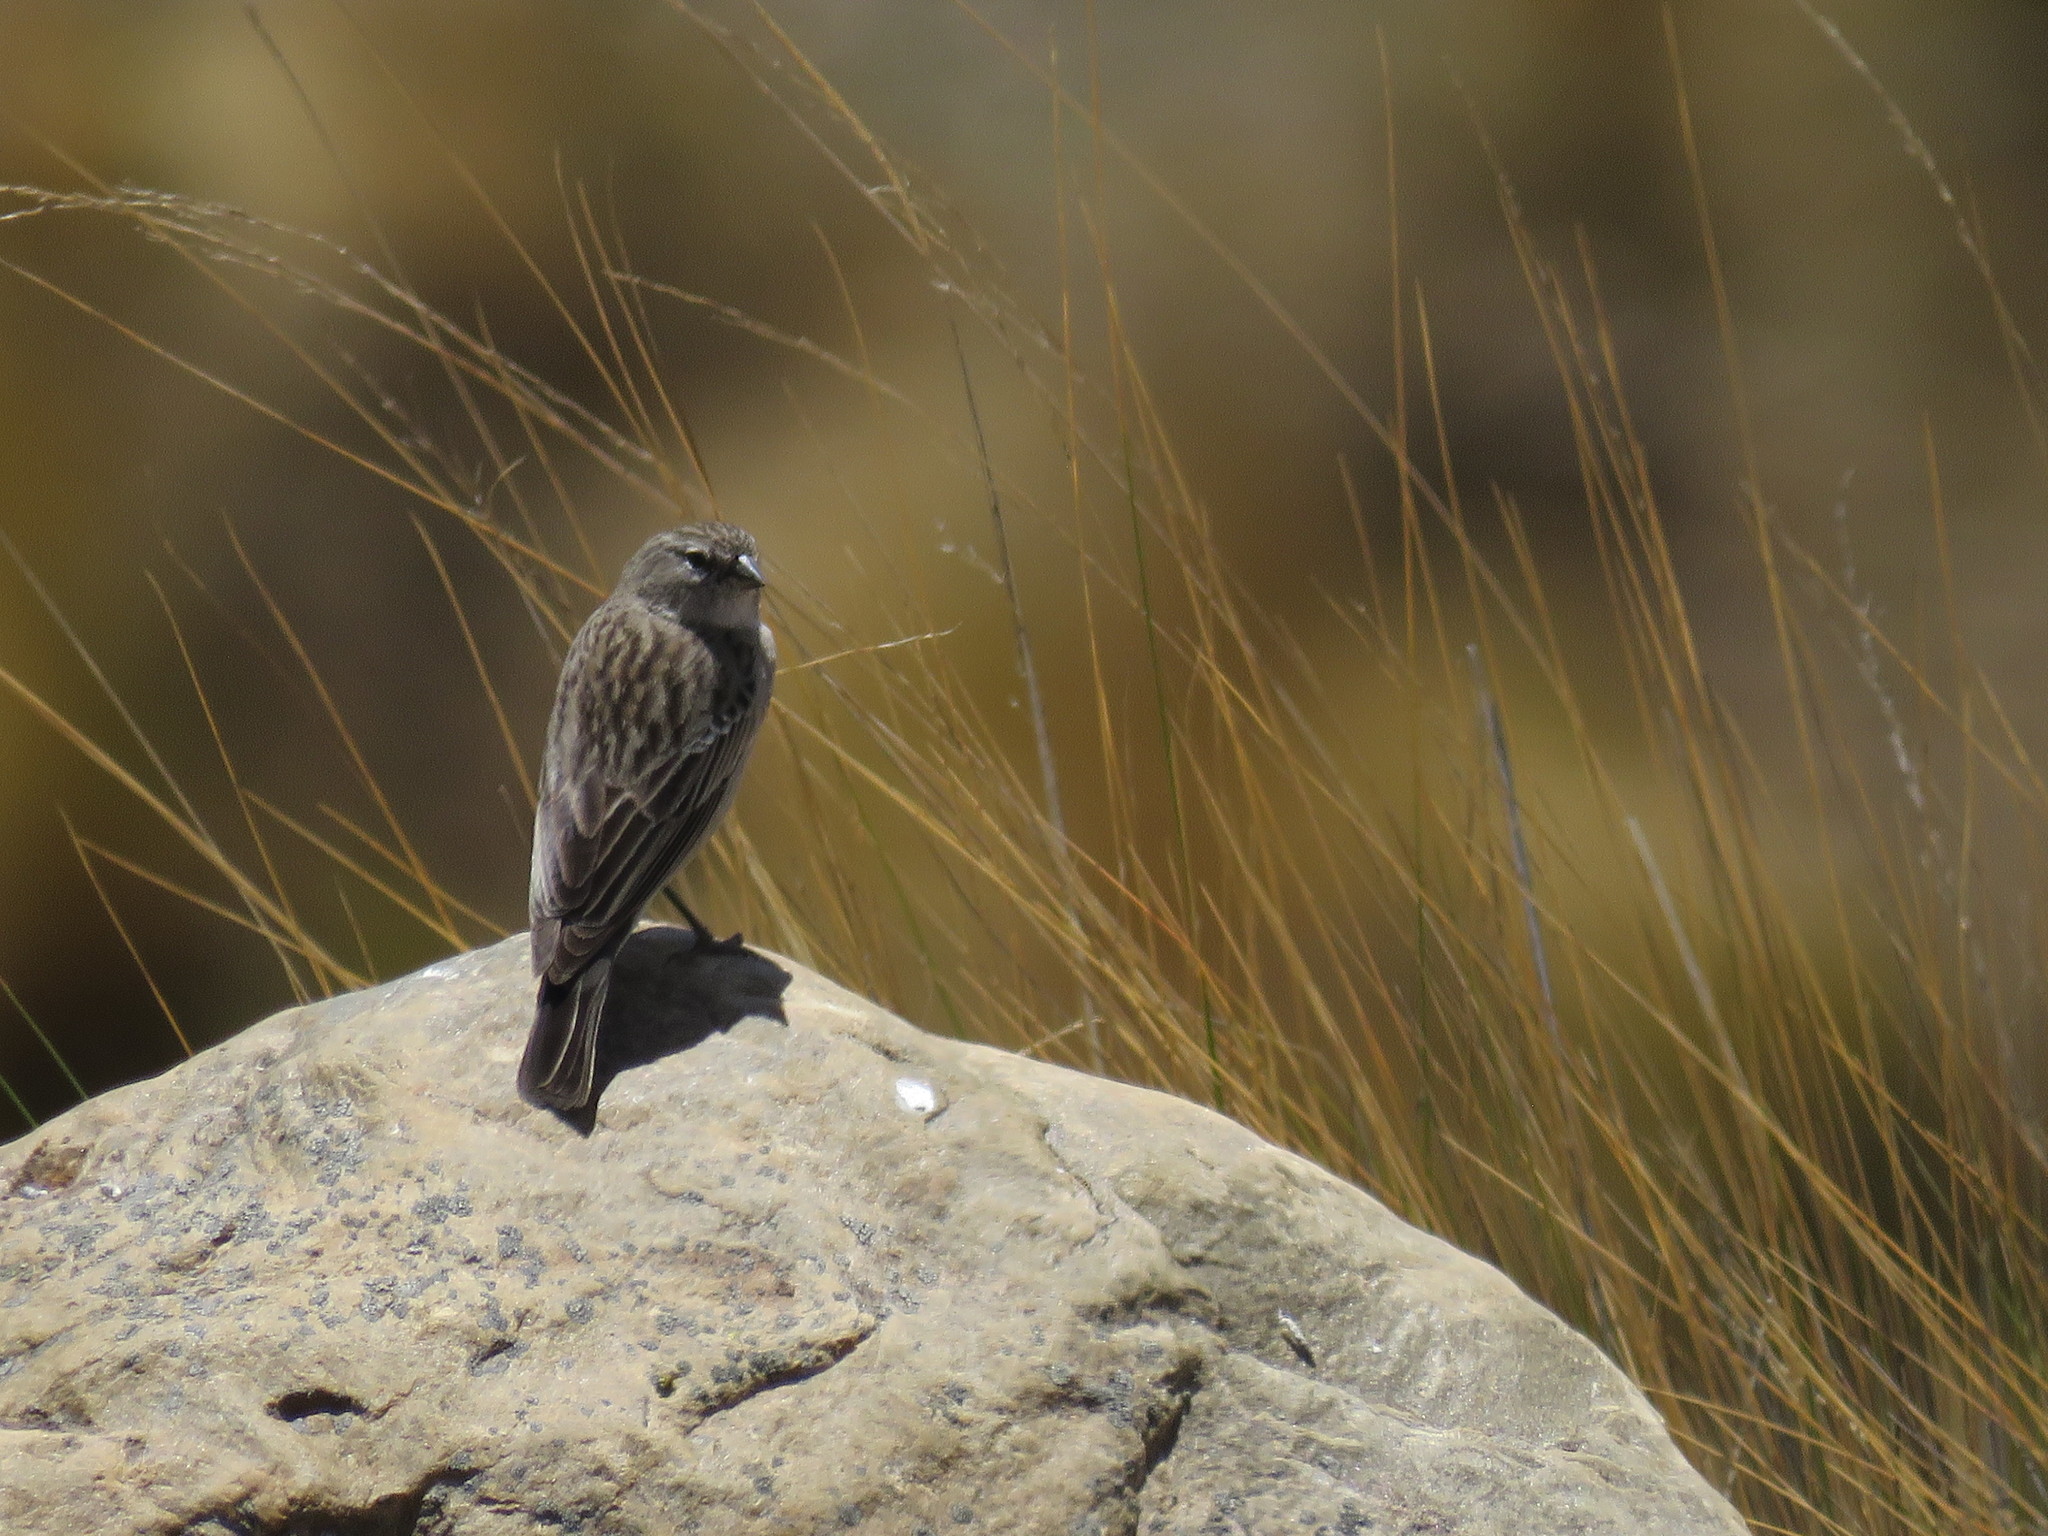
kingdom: Animalia
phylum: Chordata
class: Aves
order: Passeriformes
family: Thraupidae
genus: Geospizopsis
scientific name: Geospizopsis unicolor
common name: Plumbeous sierra-finch
